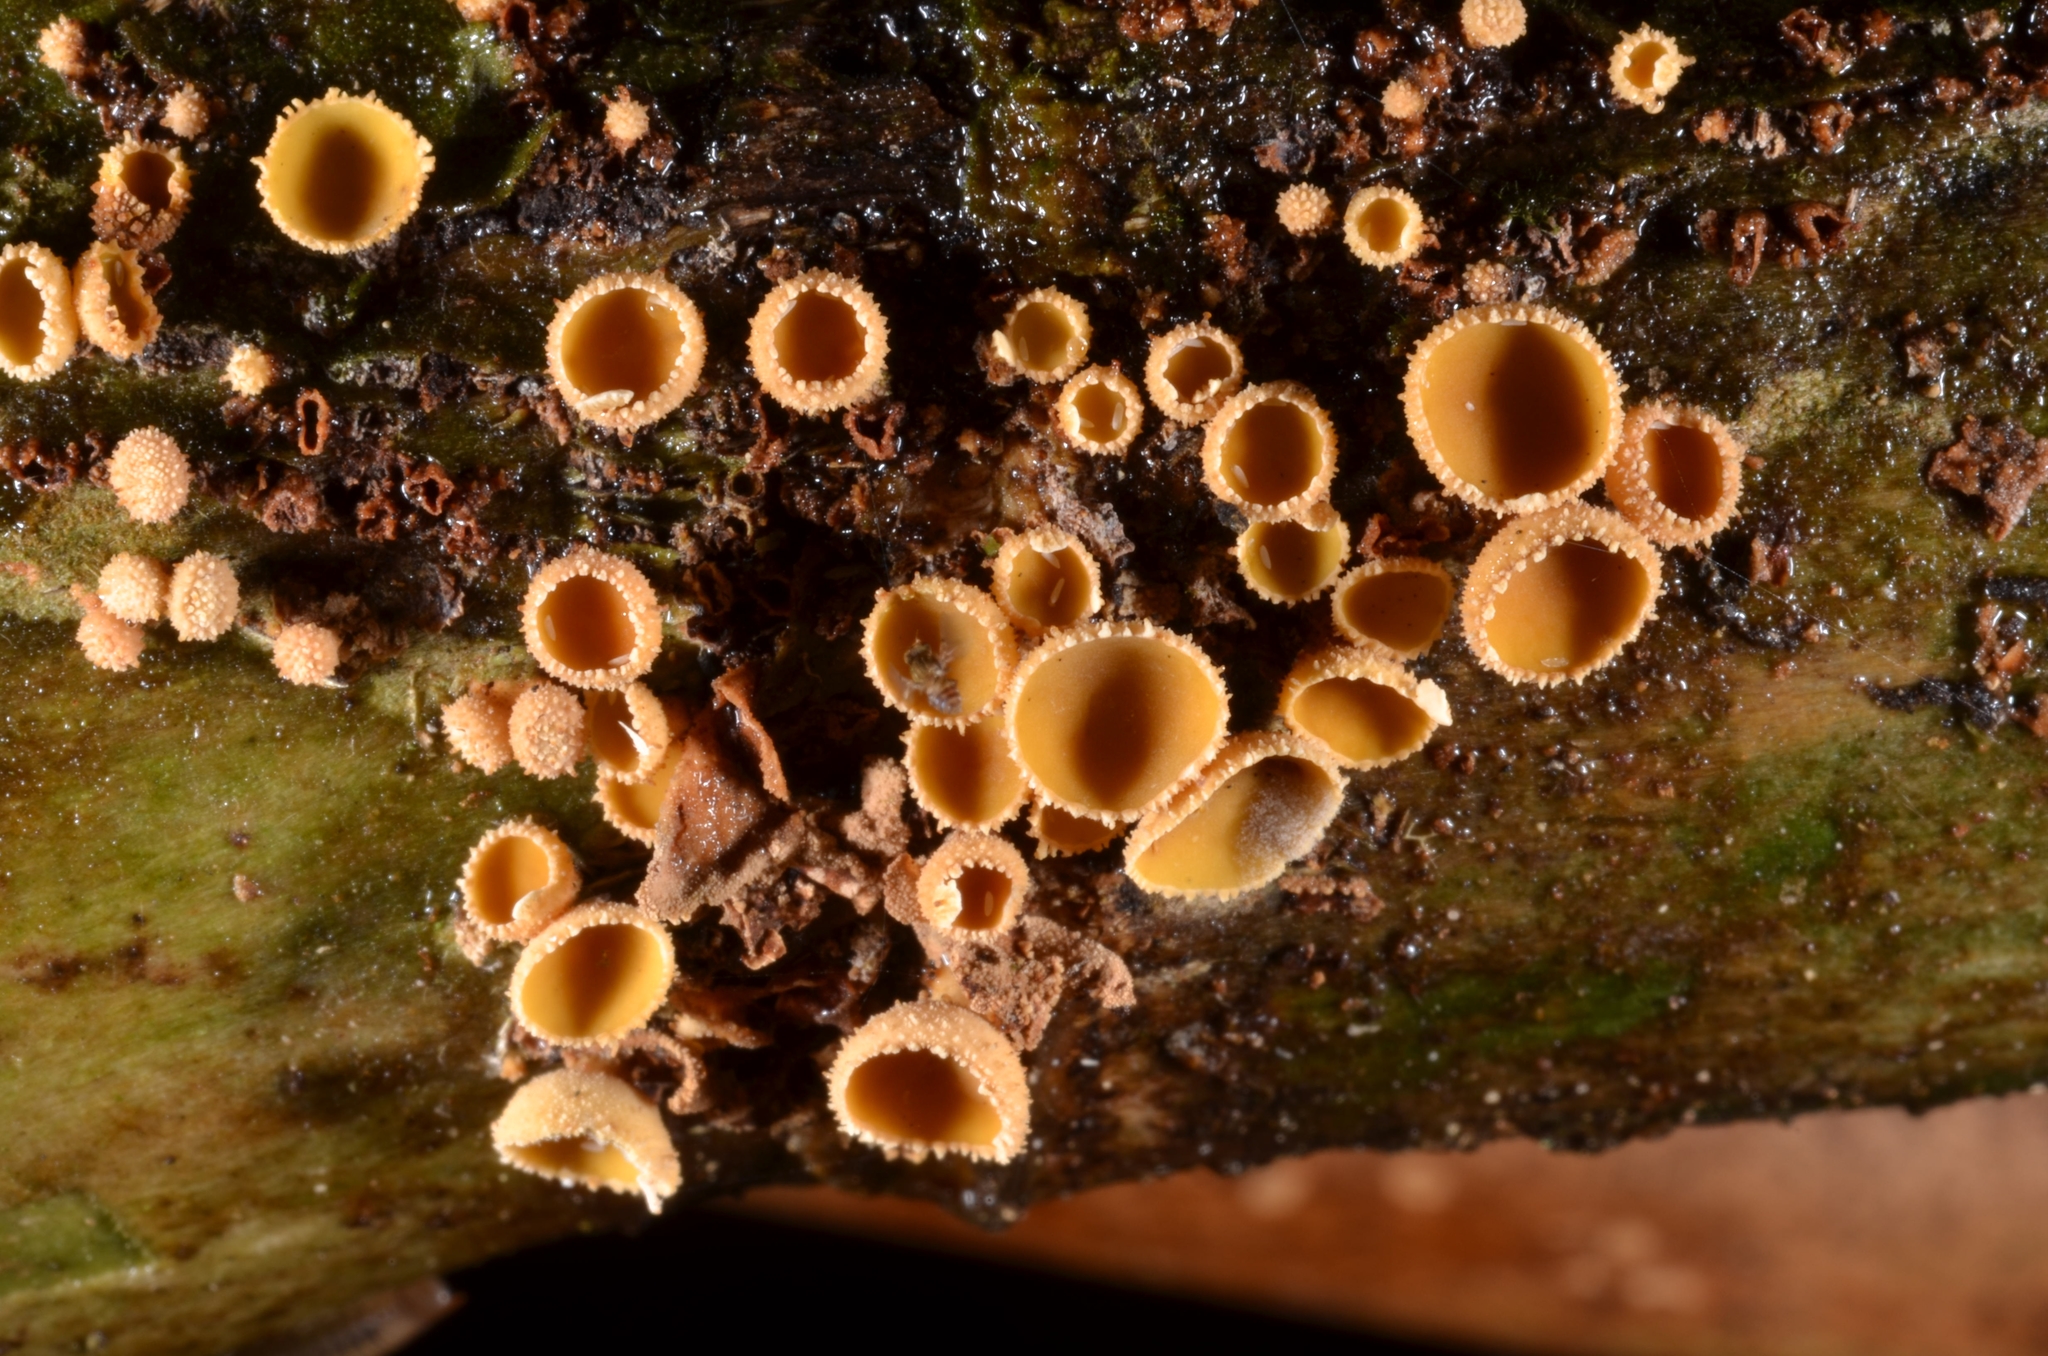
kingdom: Fungi
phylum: Ascomycota
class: Leotiomycetes
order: Helotiales
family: Cenangiaceae
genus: Encoelia
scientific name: Encoelia helvola
